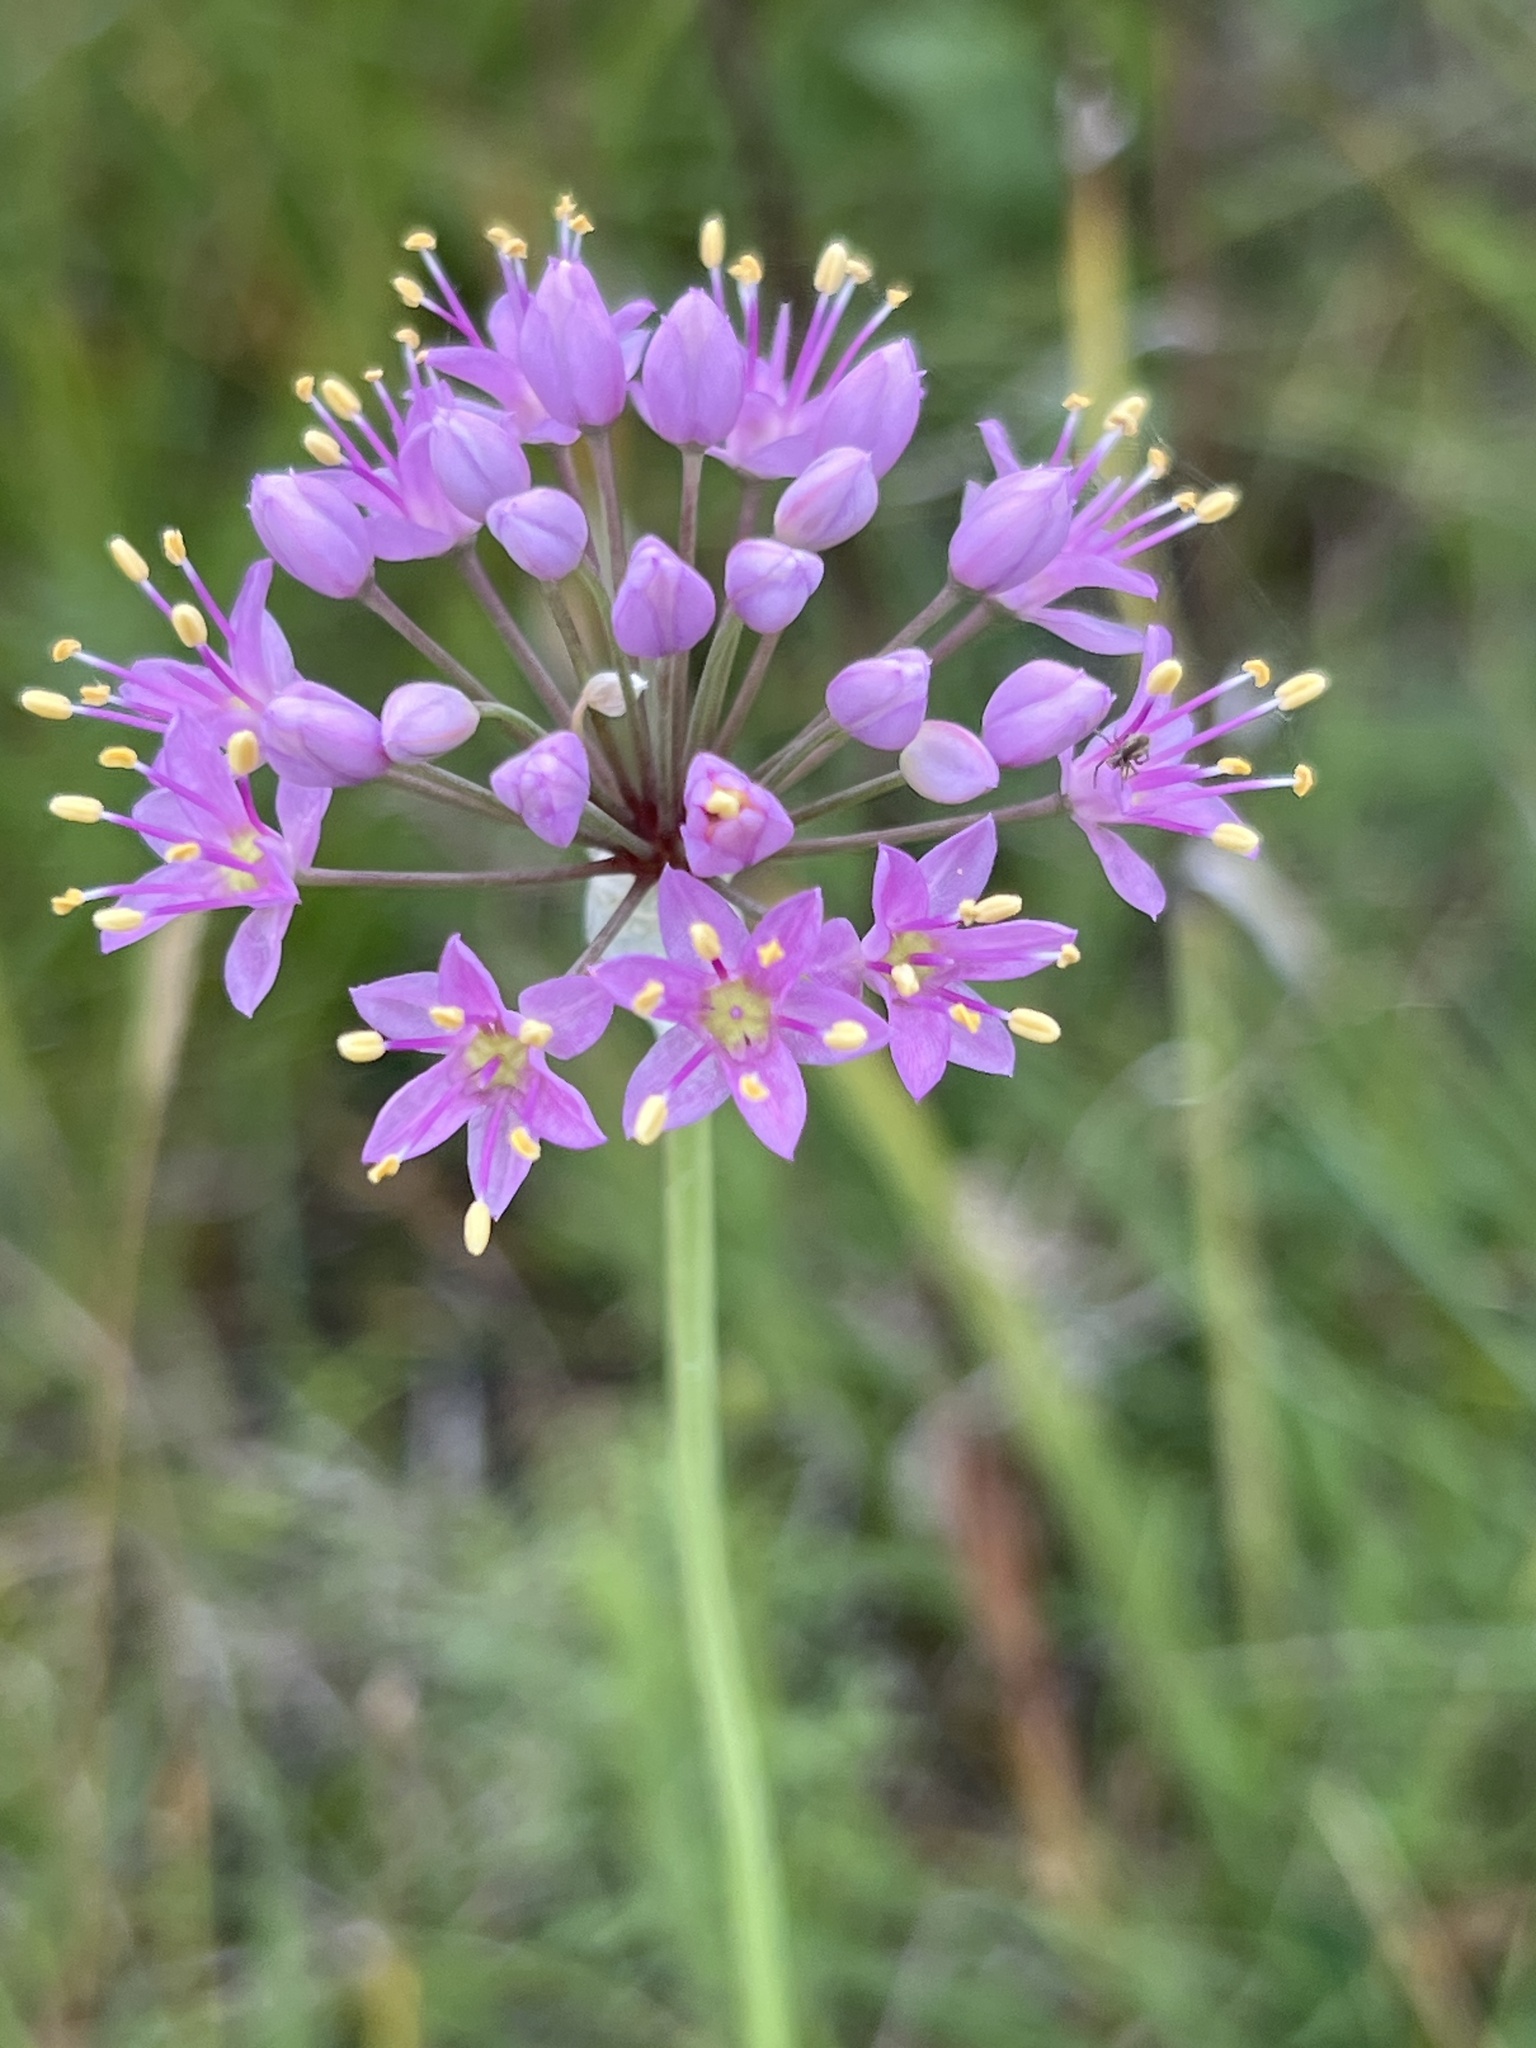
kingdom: Plantae
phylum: Tracheophyta
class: Liliopsida
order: Asparagales
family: Amaryllidaceae
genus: Allium
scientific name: Allium stellatum
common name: Autumn onion
